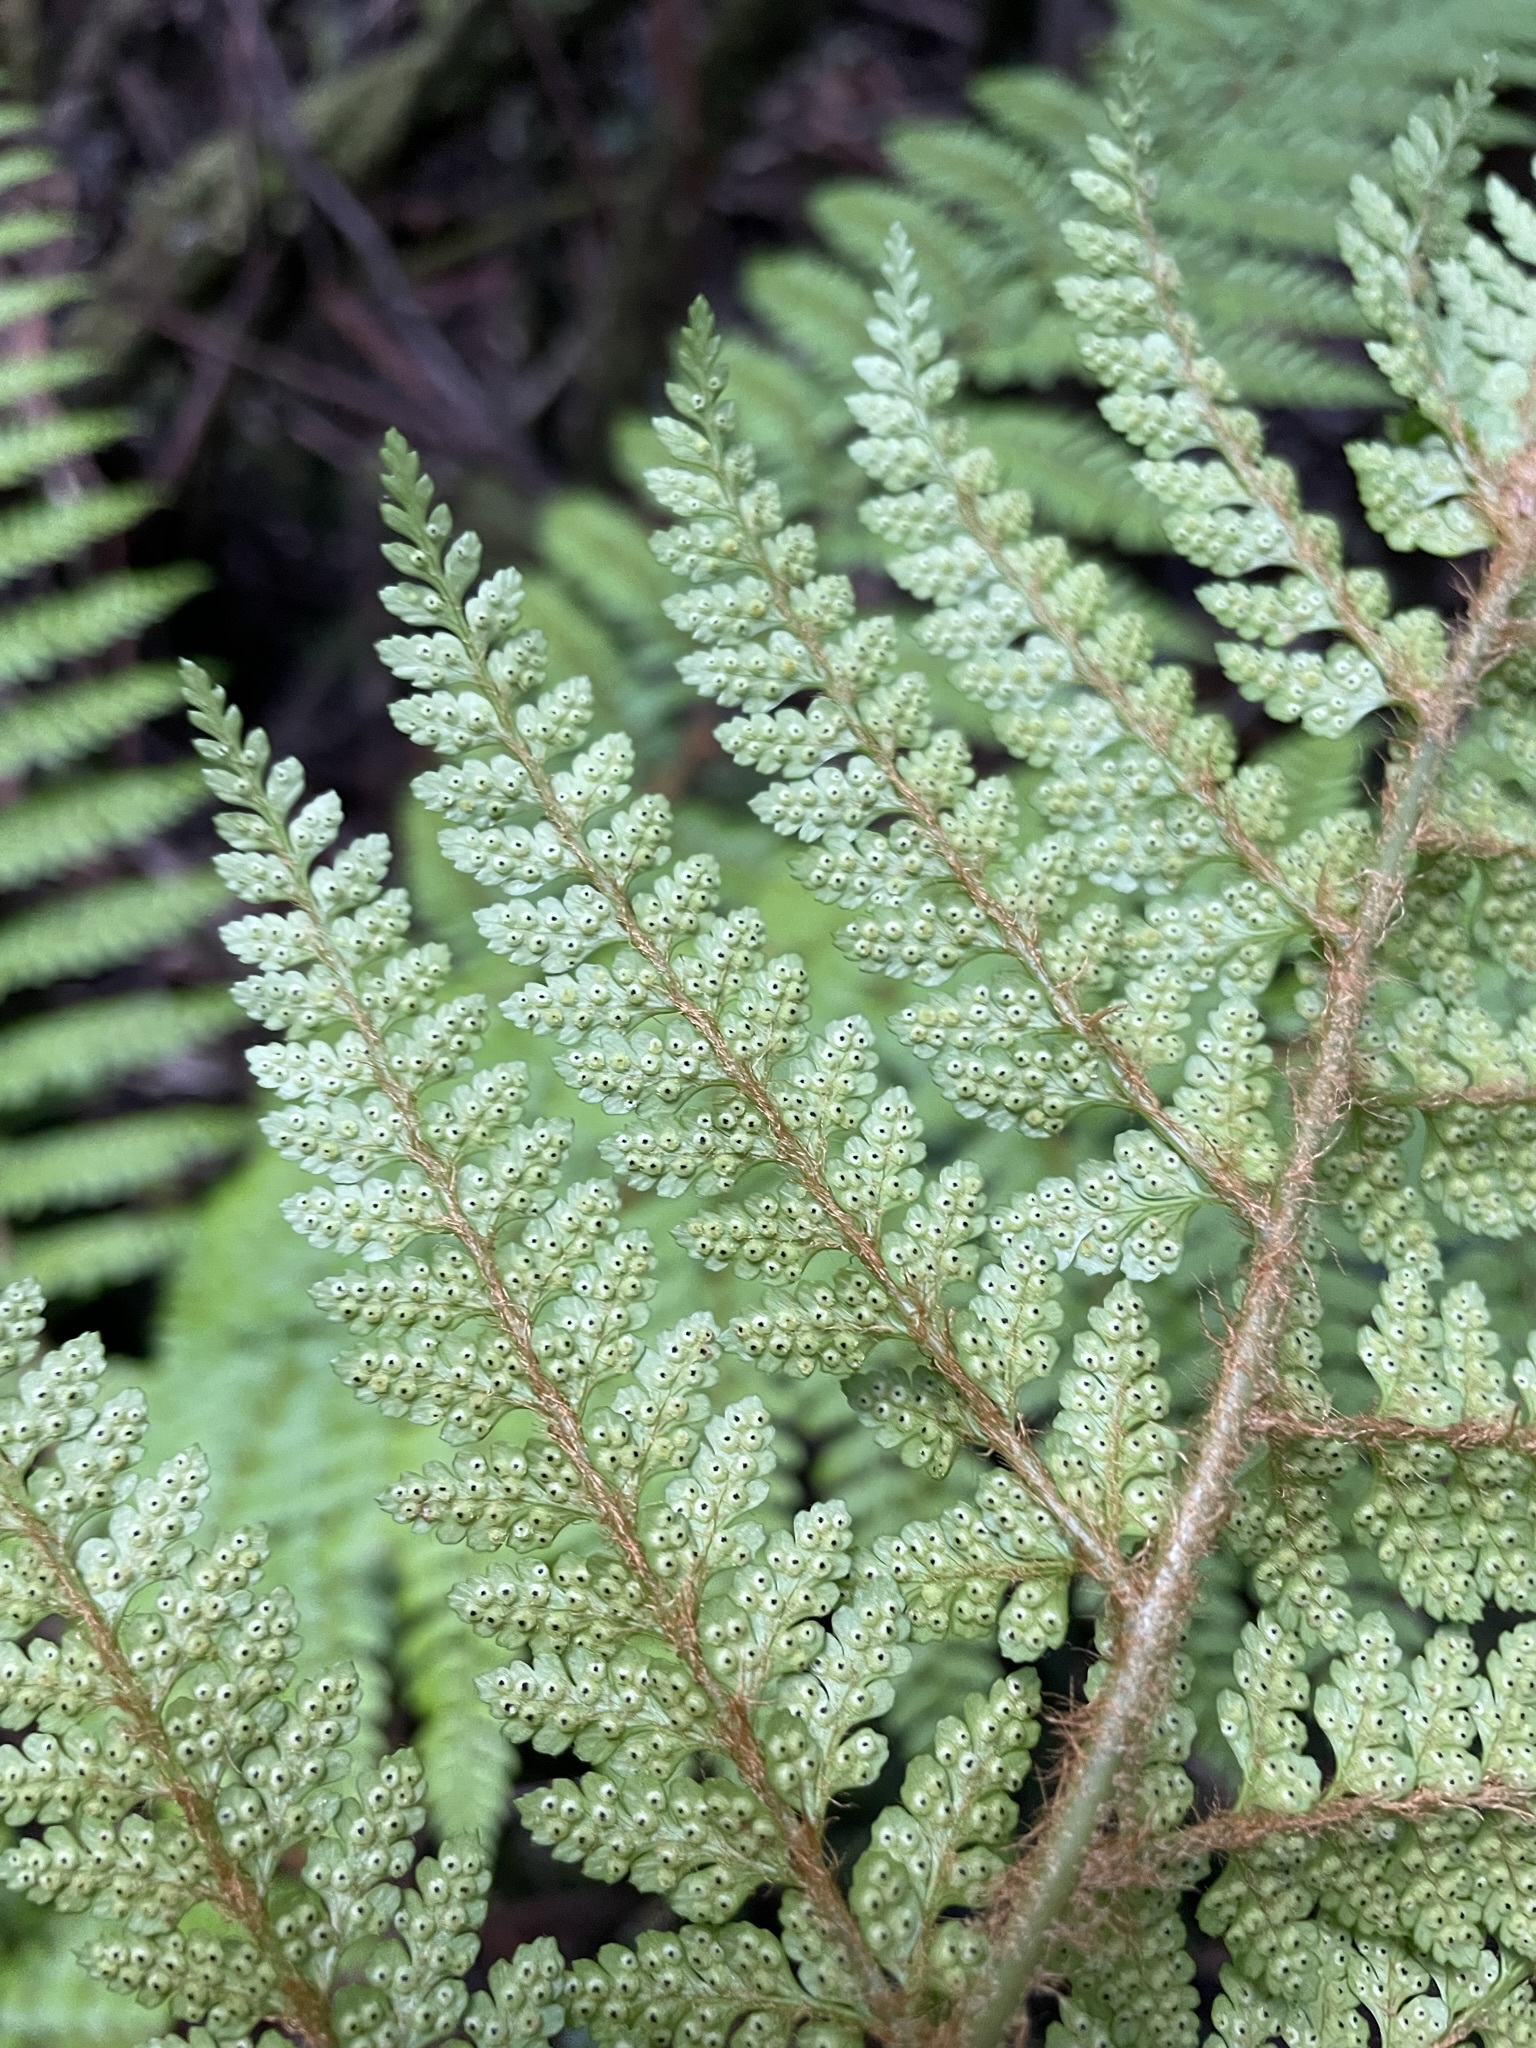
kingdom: Plantae
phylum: Tracheophyta
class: Polypodiopsida
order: Polypodiales
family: Dryopteridaceae
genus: Polystichum
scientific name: Polystichum proliferum
